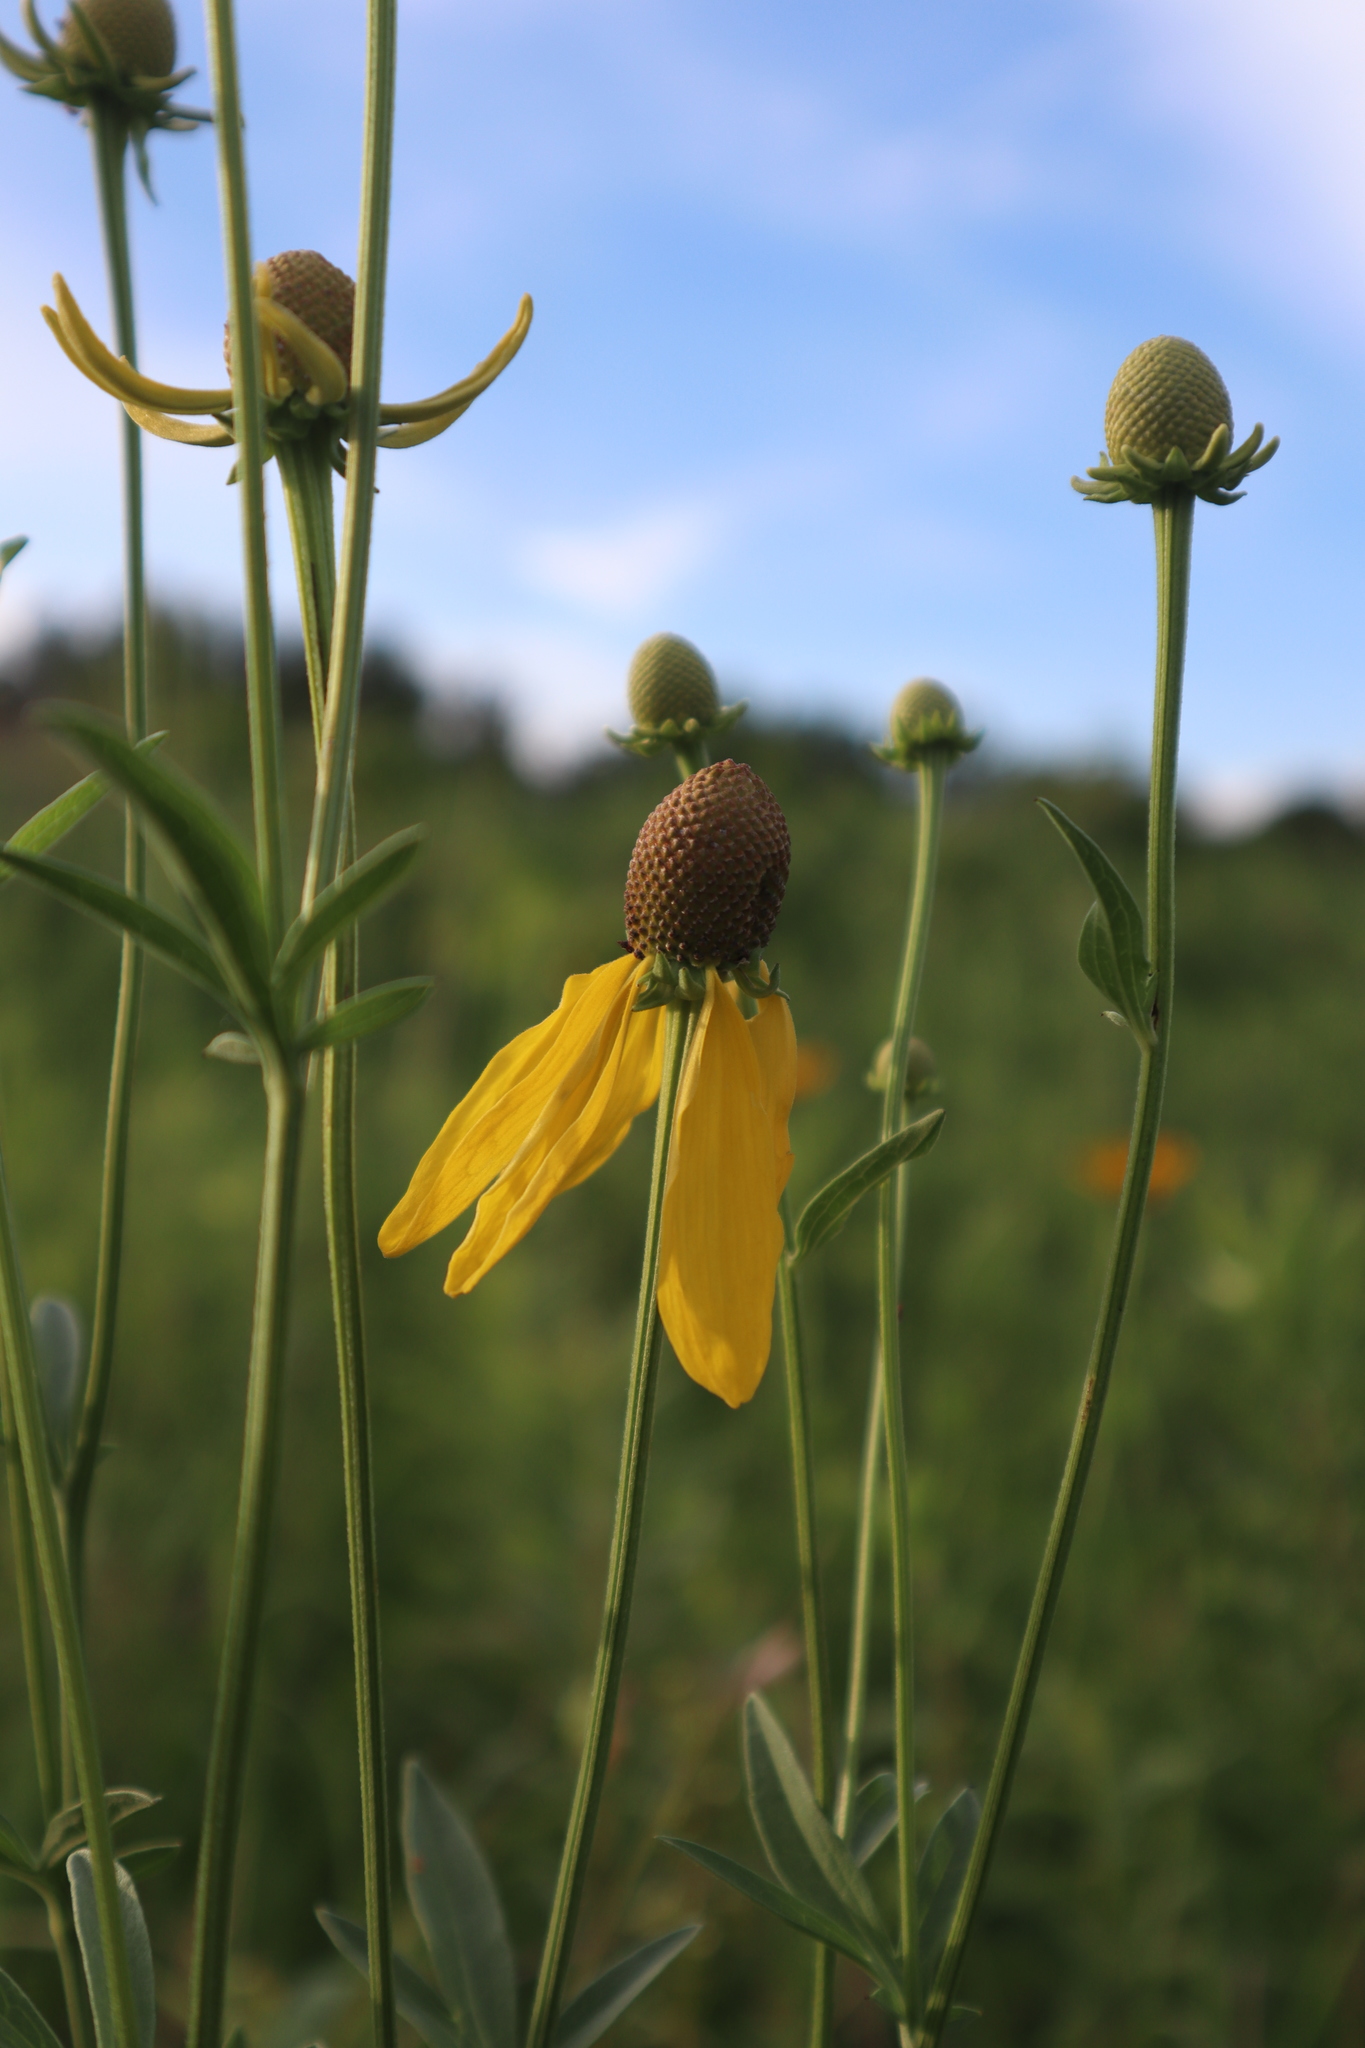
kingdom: Plantae
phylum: Tracheophyta
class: Magnoliopsida
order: Asterales
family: Asteraceae
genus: Ratibida
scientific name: Ratibida pinnata
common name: Drooping prairie-coneflower
